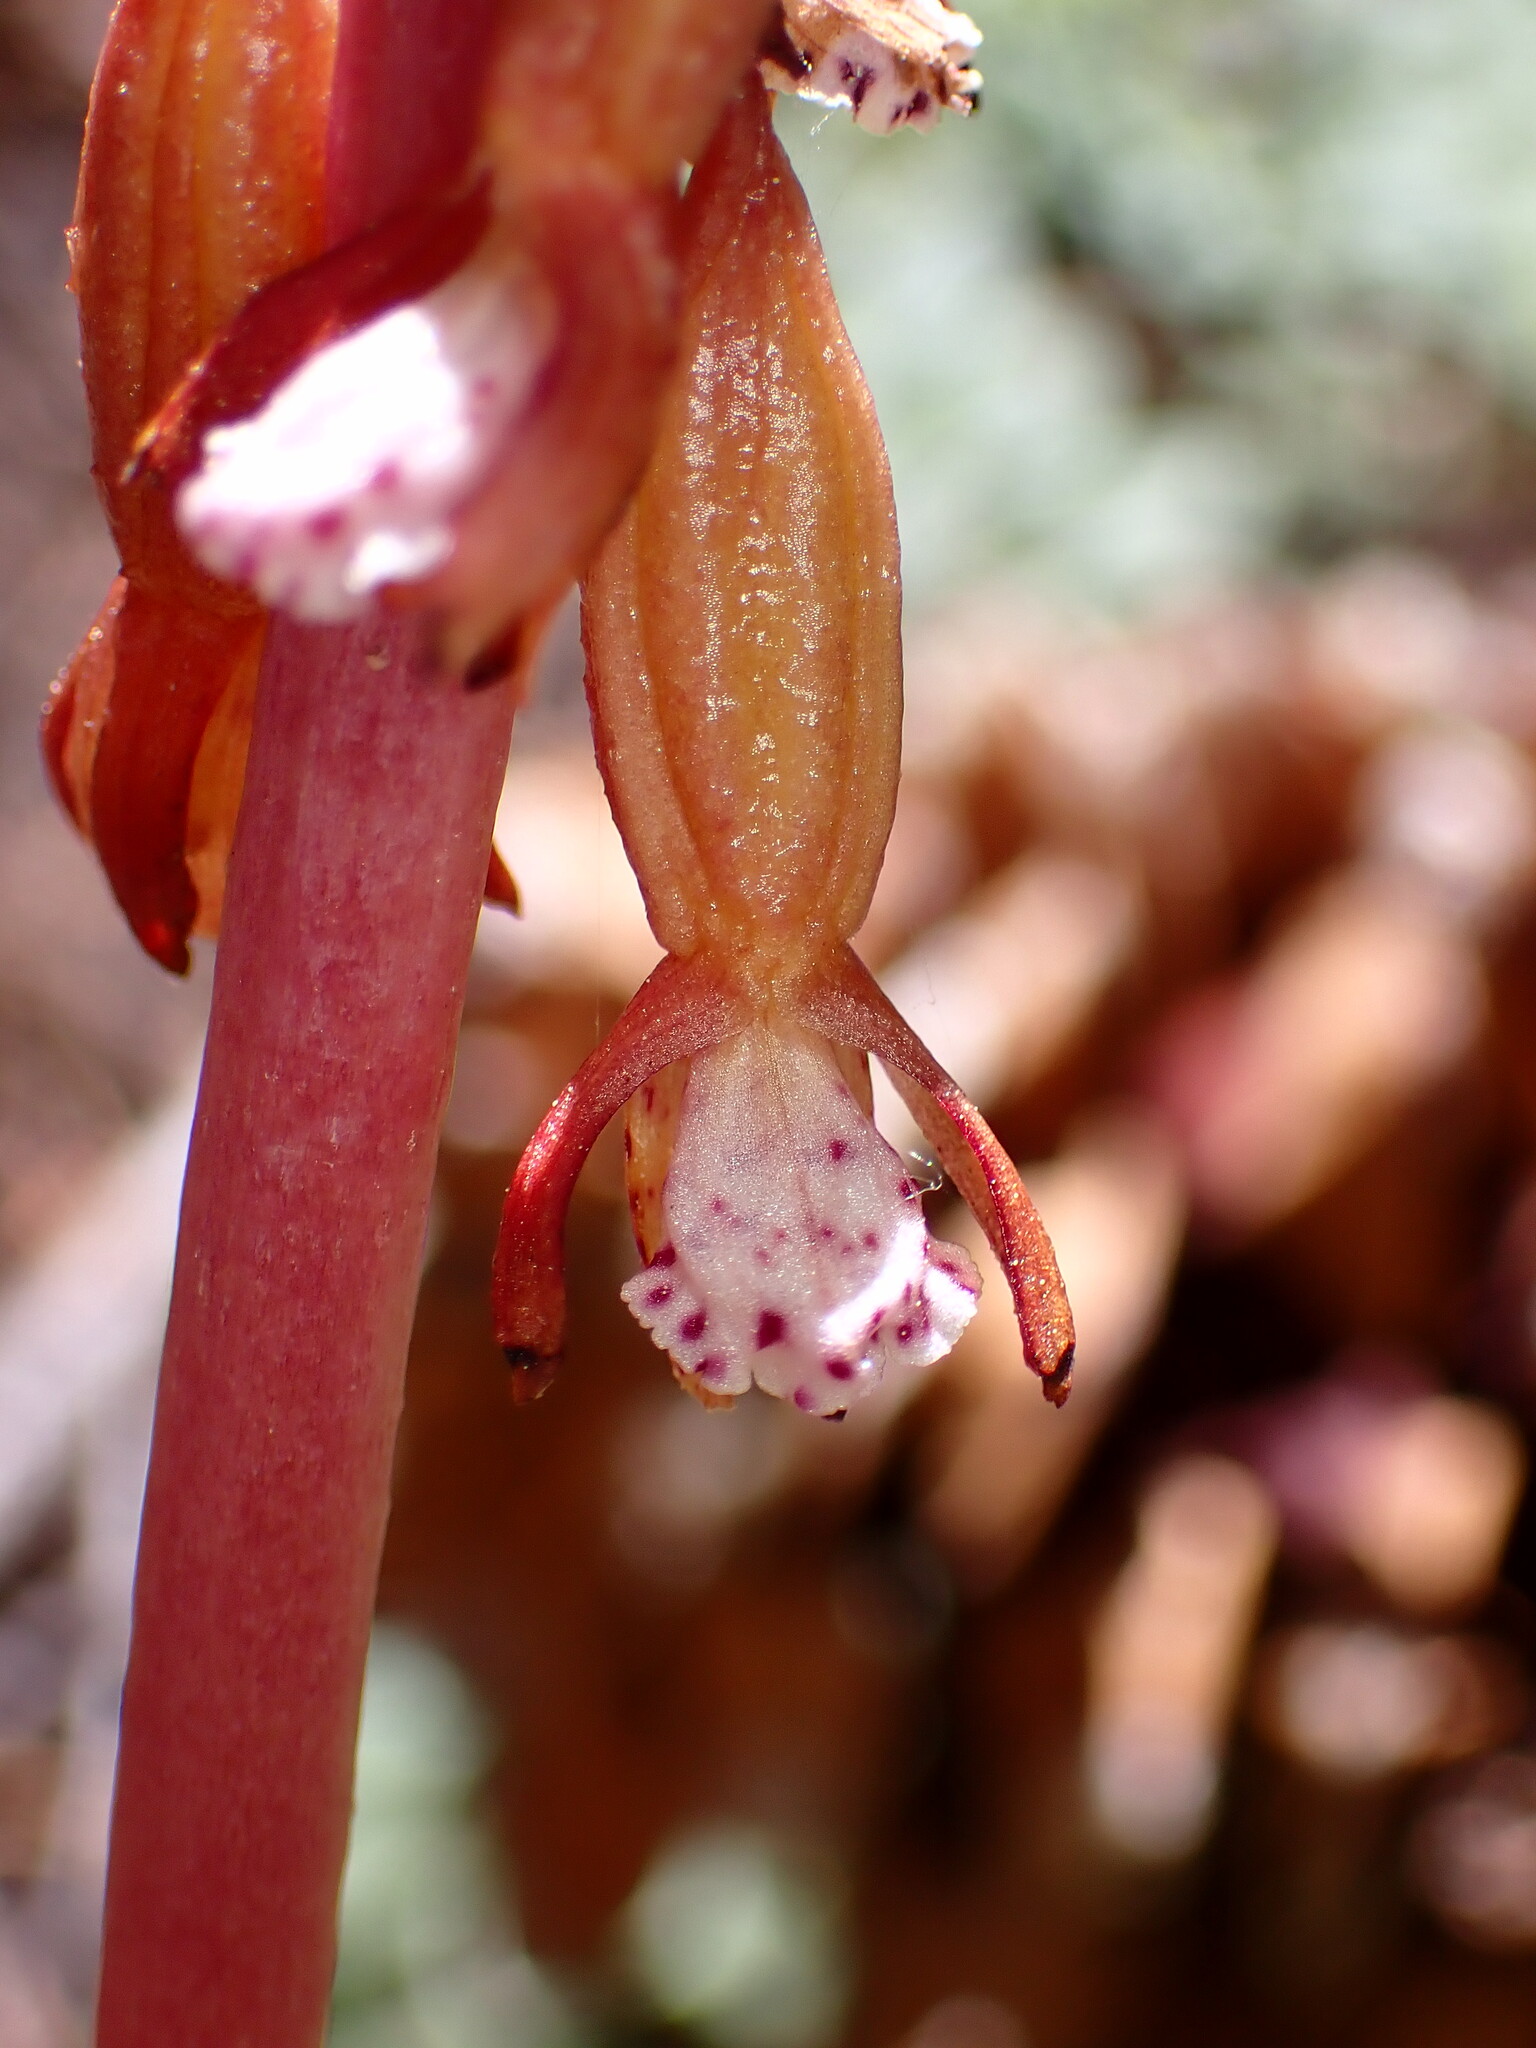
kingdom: Plantae
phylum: Tracheophyta
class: Liliopsida
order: Asparagales
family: Orchidaceae
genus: Corallorhiza
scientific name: Corallorhiza maculata
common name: Spotted coralroot
